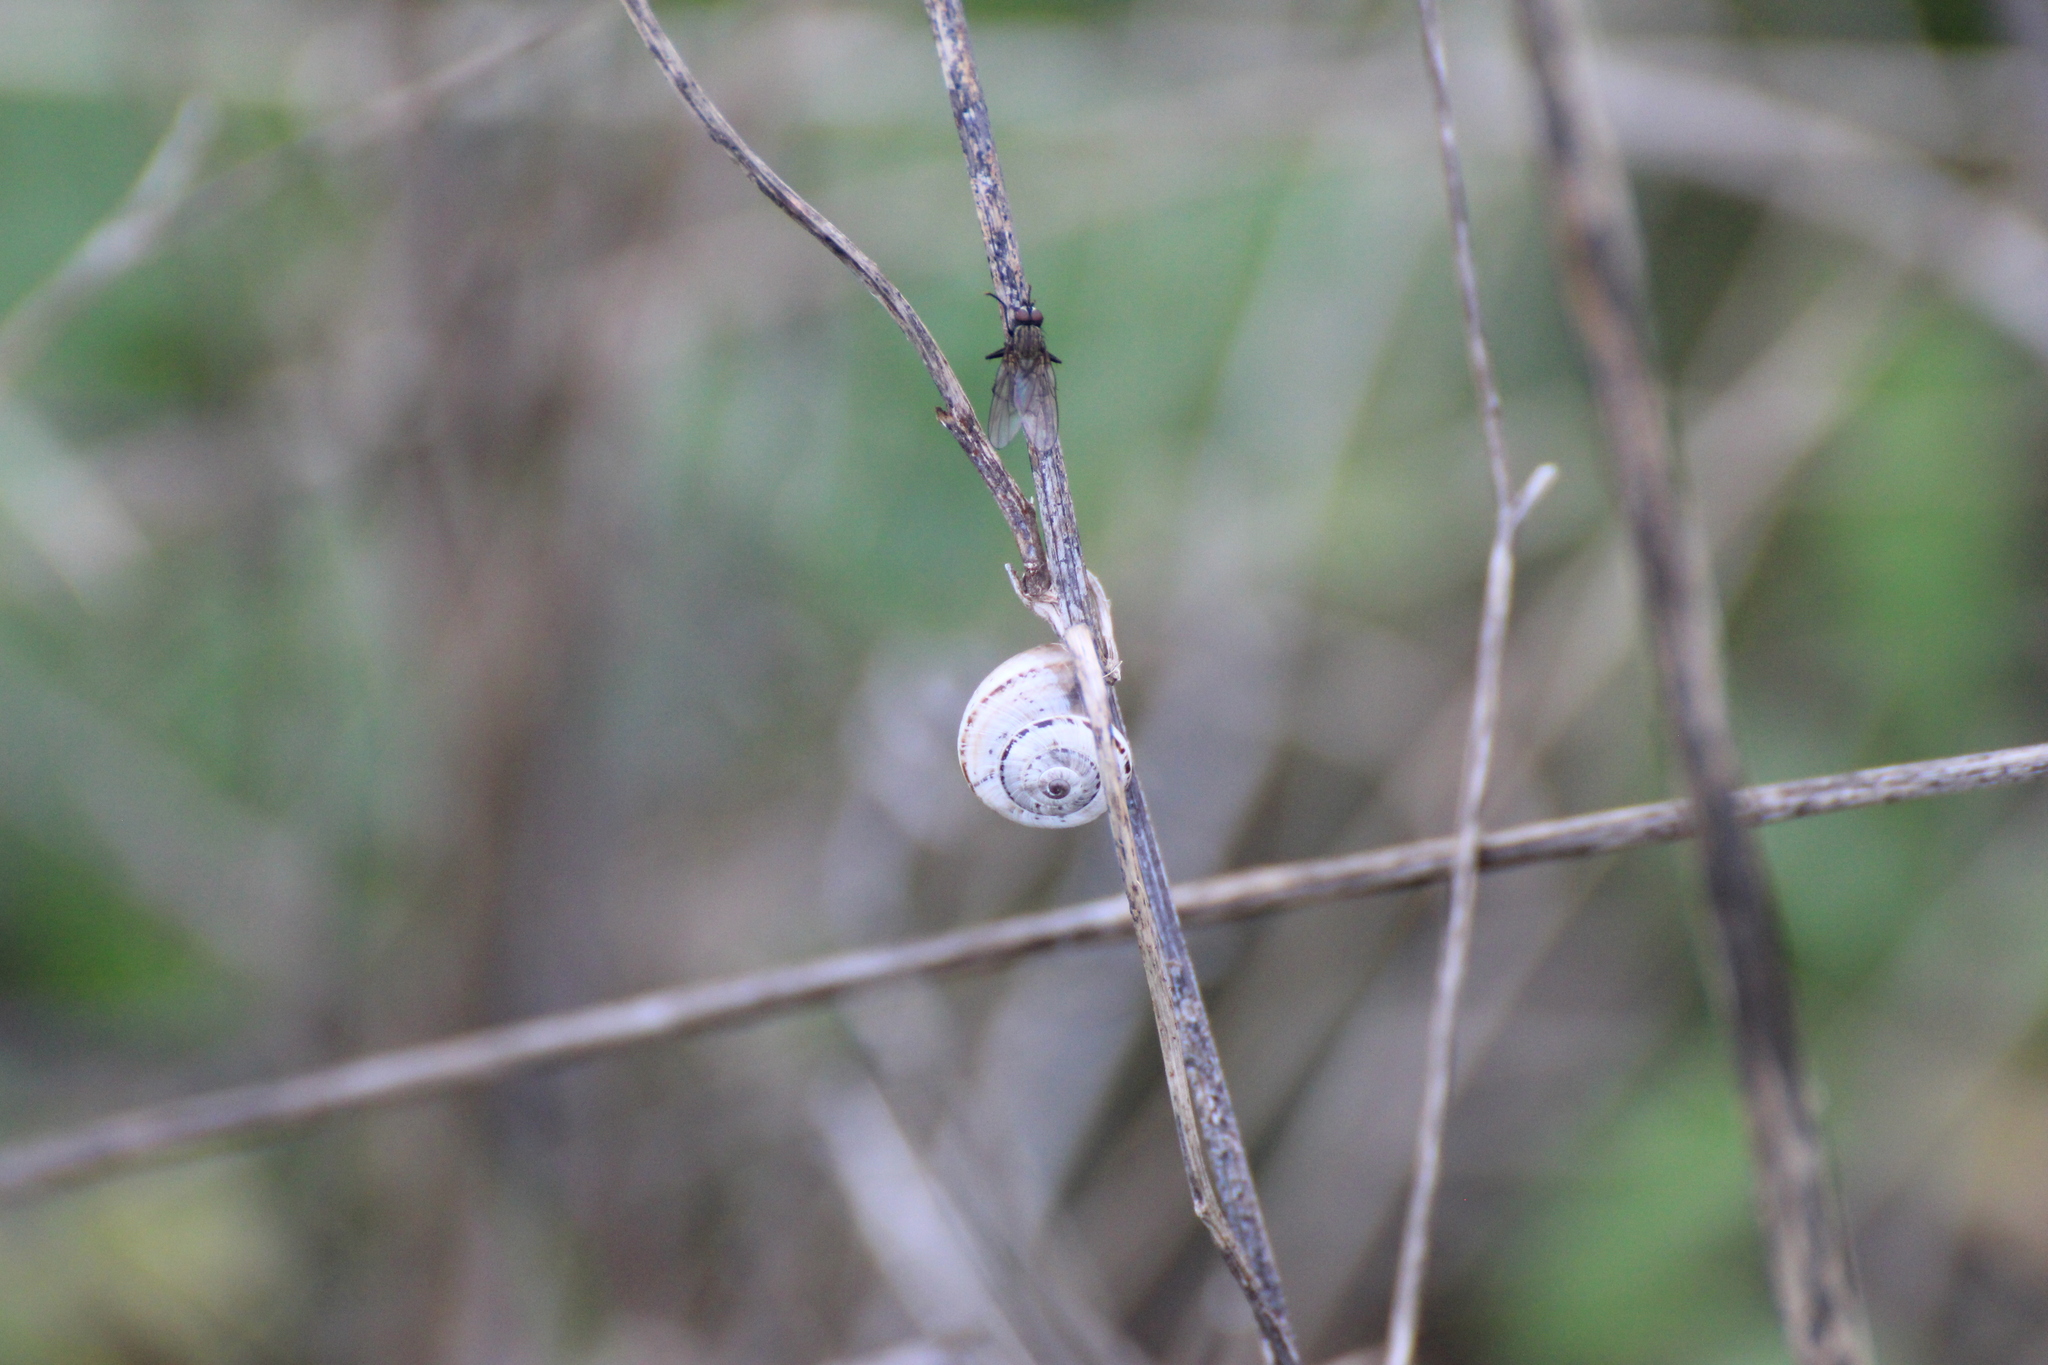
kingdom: Animalia
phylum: Mollusca
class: Gastropoda
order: Stylommatophora
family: Geomitridae
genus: Xerosecta
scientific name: Xerosecta arigonis
